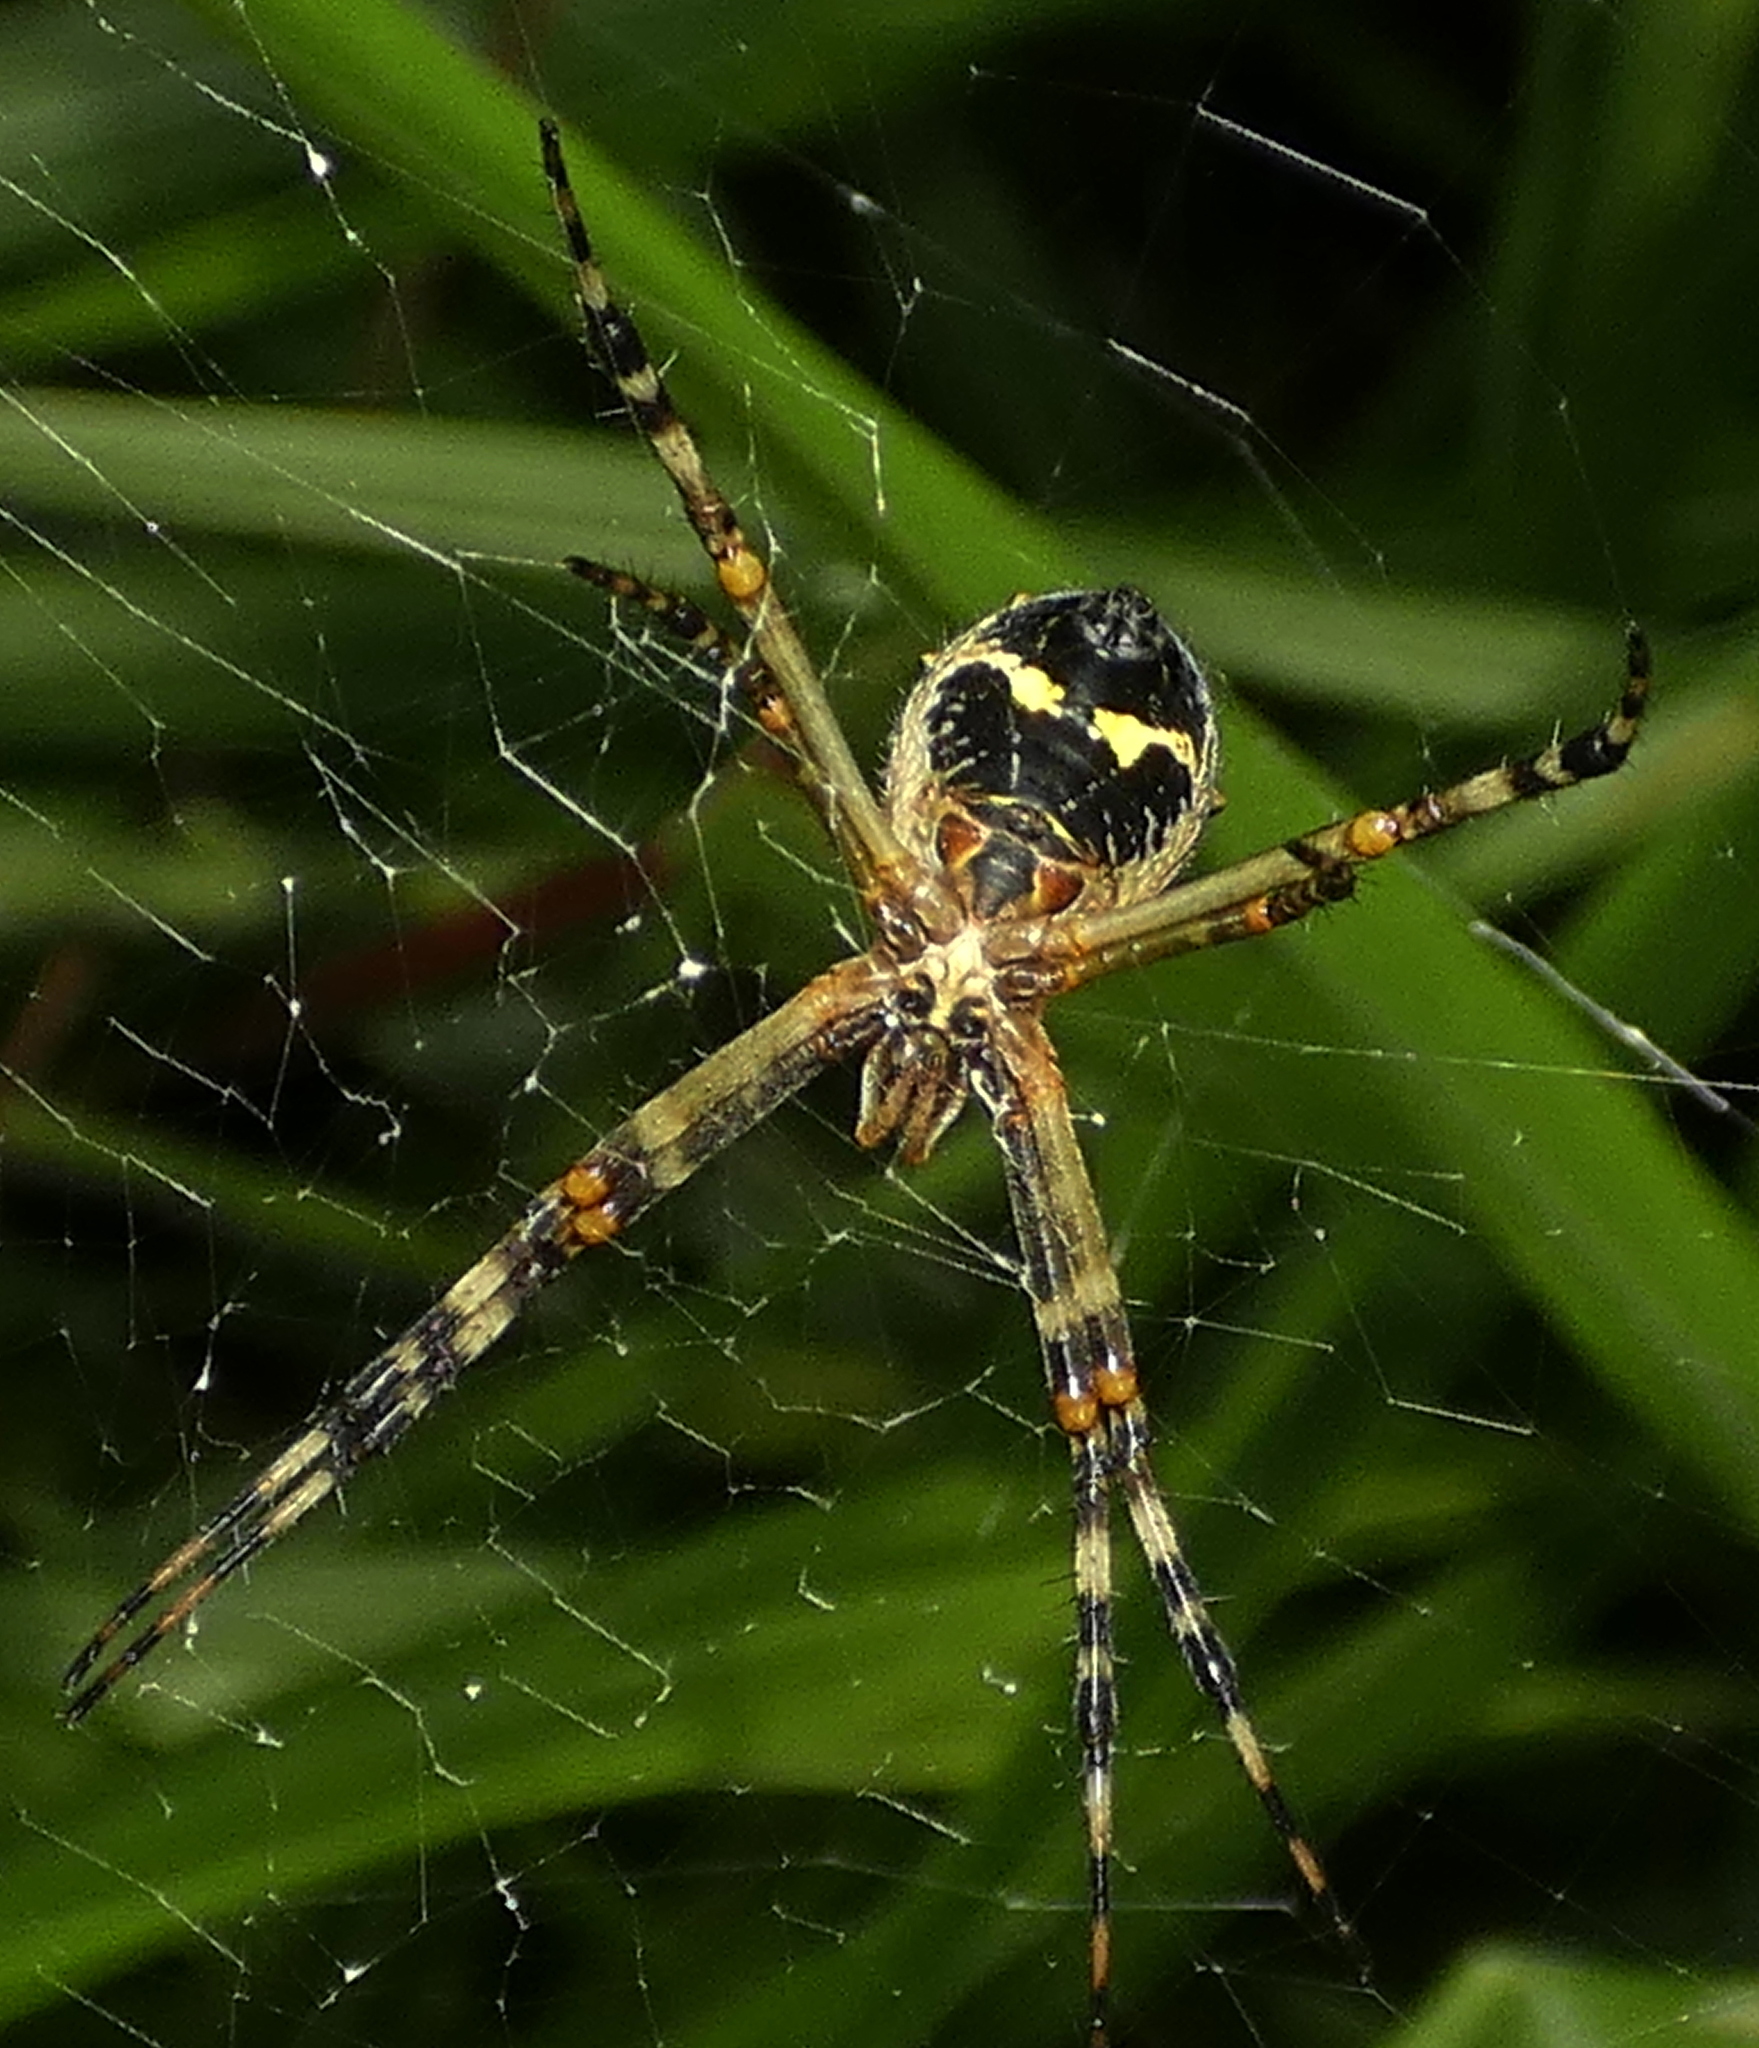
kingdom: Animalia
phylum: Arthropoda
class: Arachnida
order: Araneae
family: Araneidae
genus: Argiope
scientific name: Argiope argentata
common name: Orb weavers
